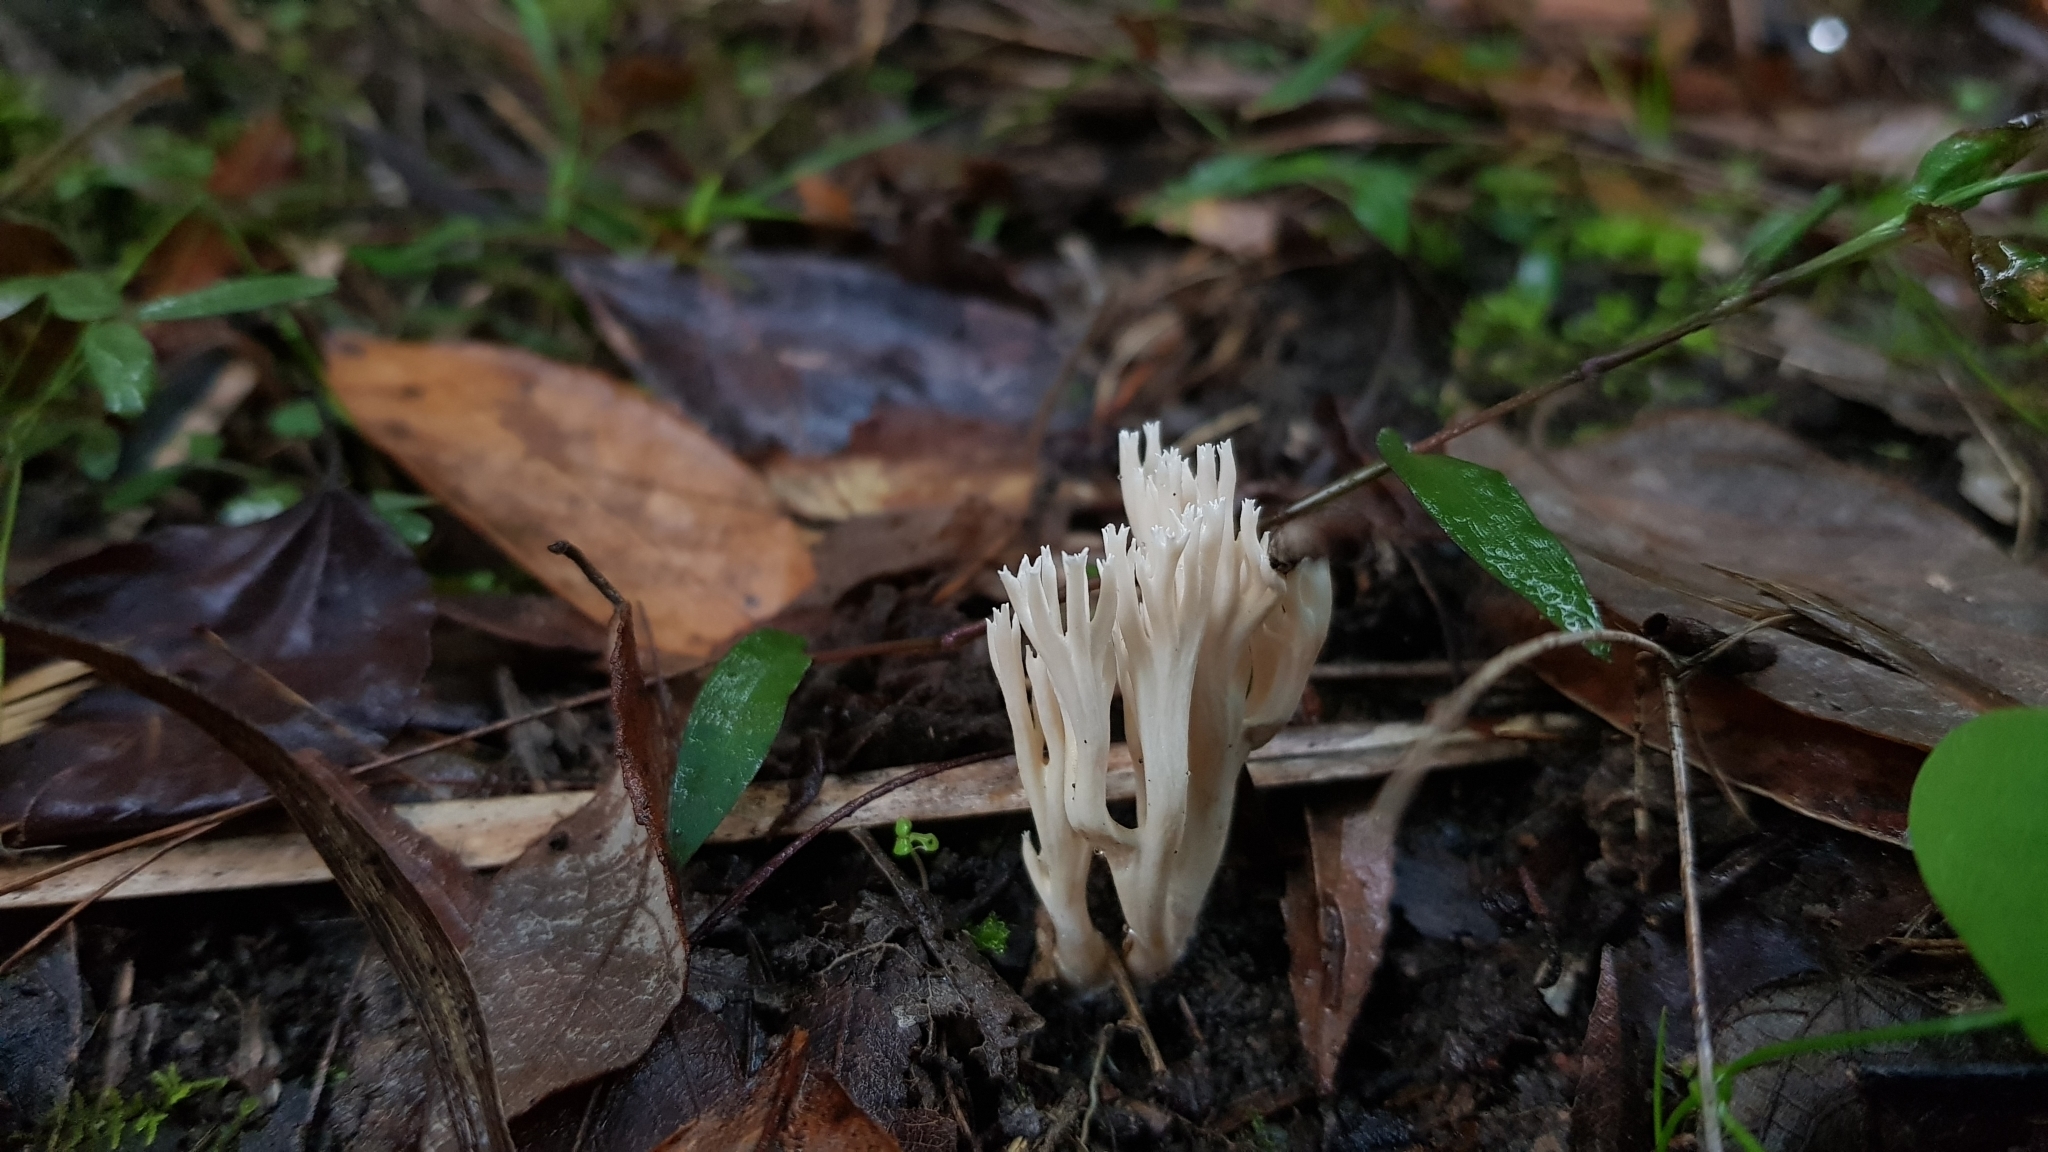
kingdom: Fungi
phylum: Basidiomycota
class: Agaricomycetes
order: Gomphales
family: Gomphaceae
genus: Ramaria
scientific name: Ramaria filicicola
